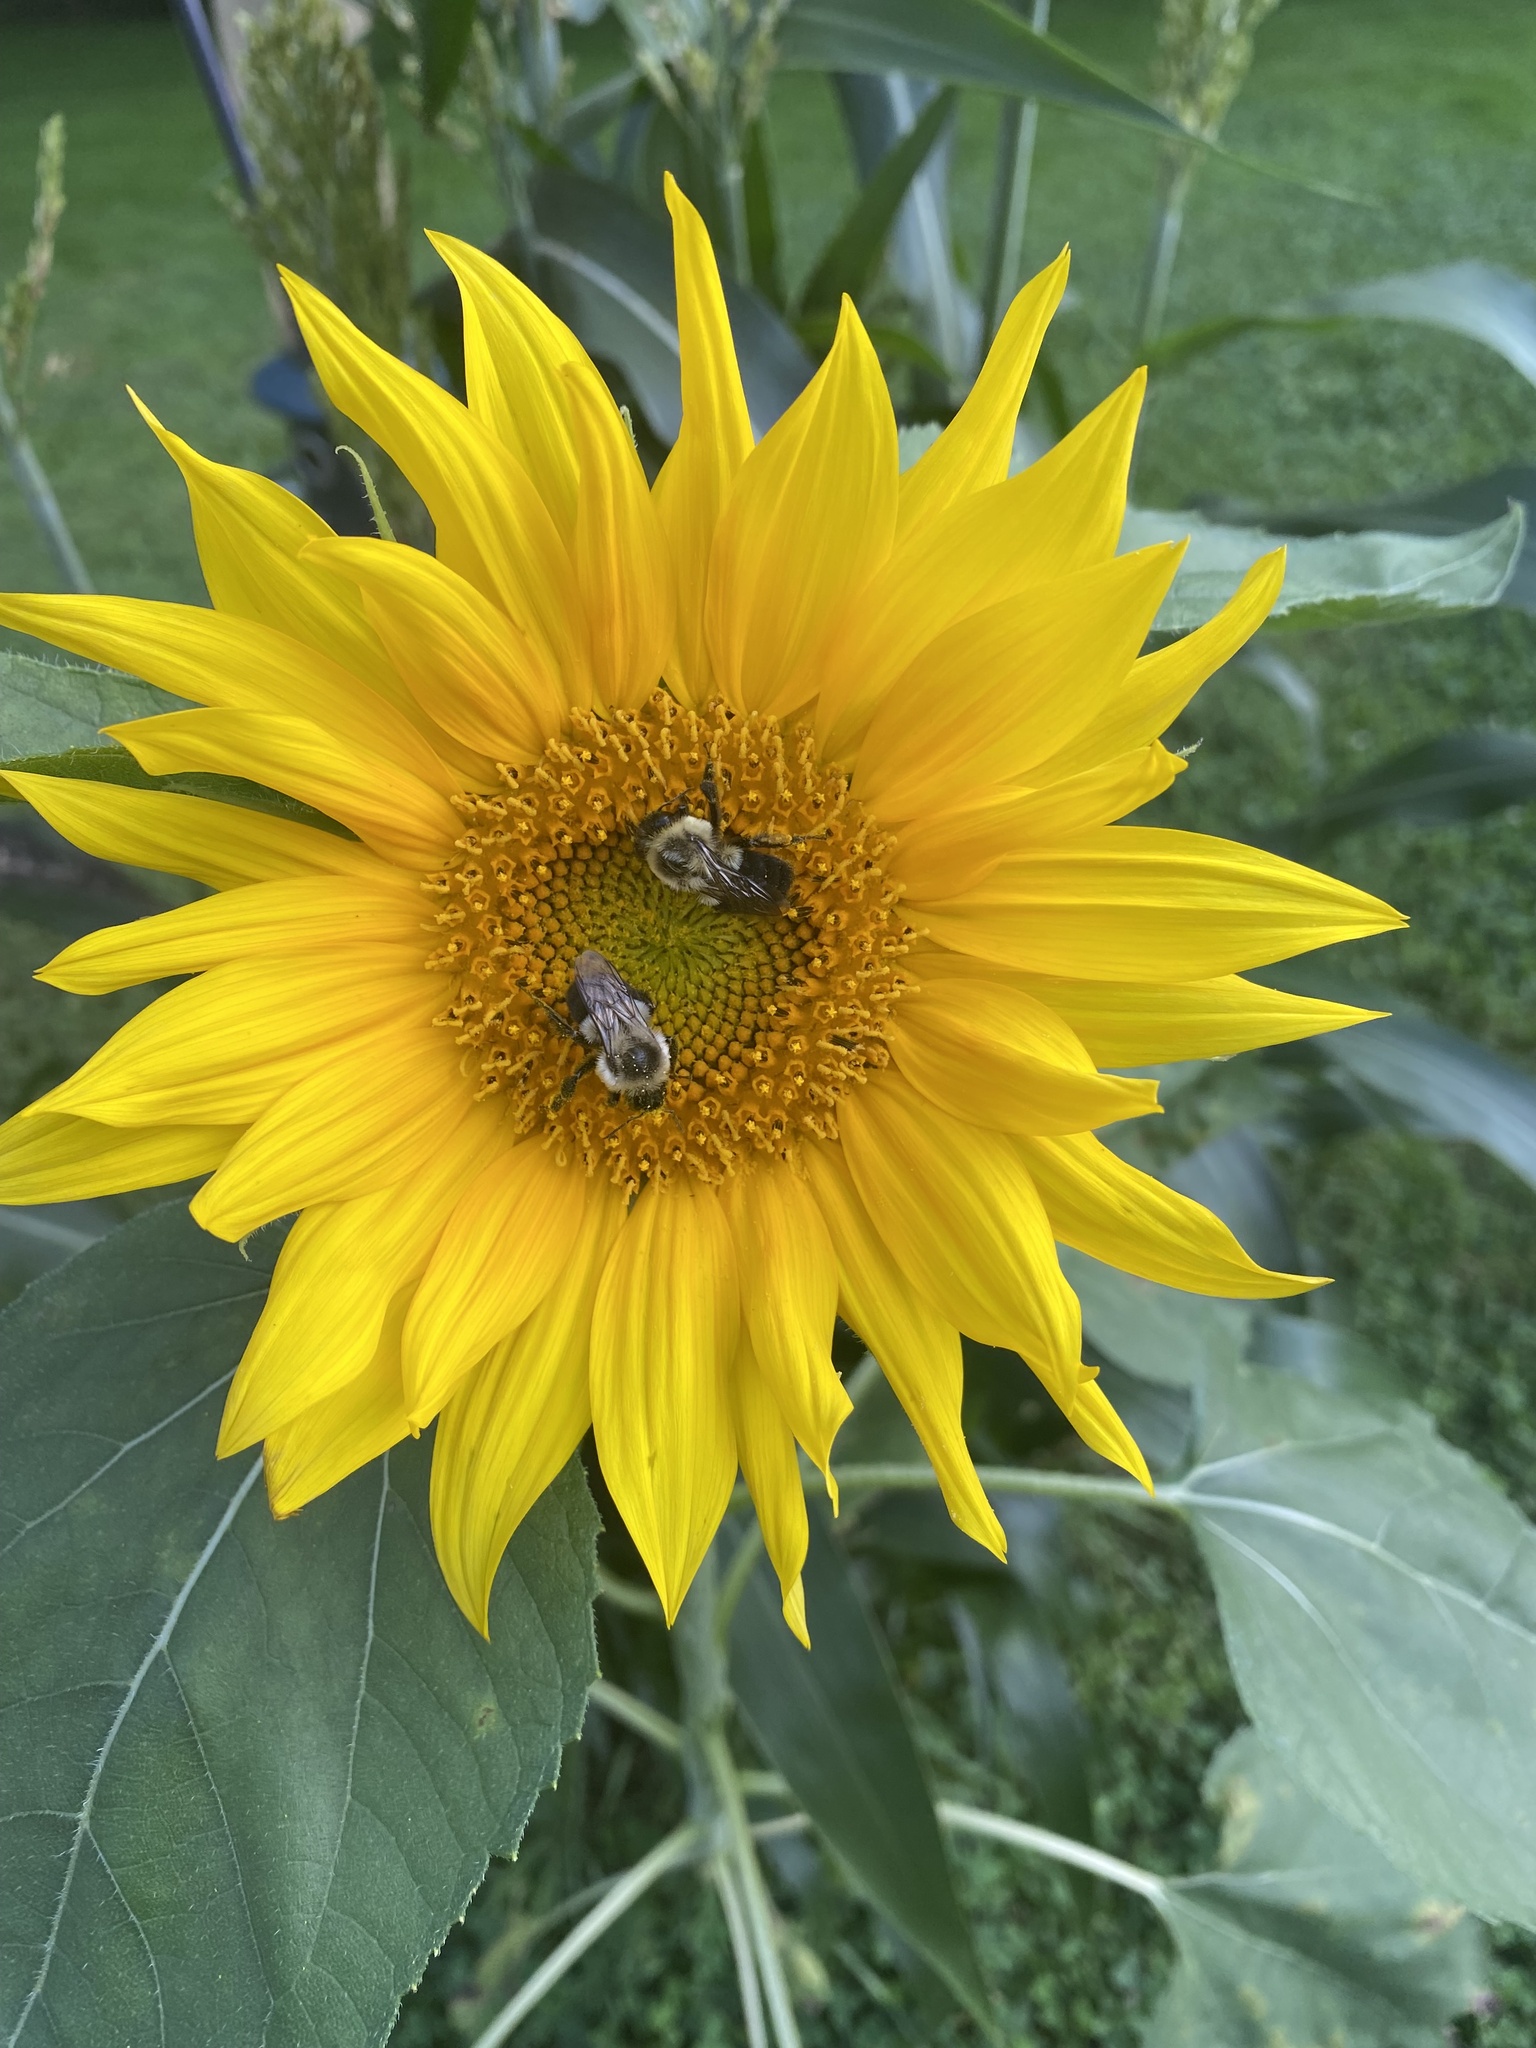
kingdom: Animalia
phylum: Arthropoda
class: Insecta
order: Hymenoptera
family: Apidae
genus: Bombus
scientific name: Bombus impatiens
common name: Common eastern bumble bee
